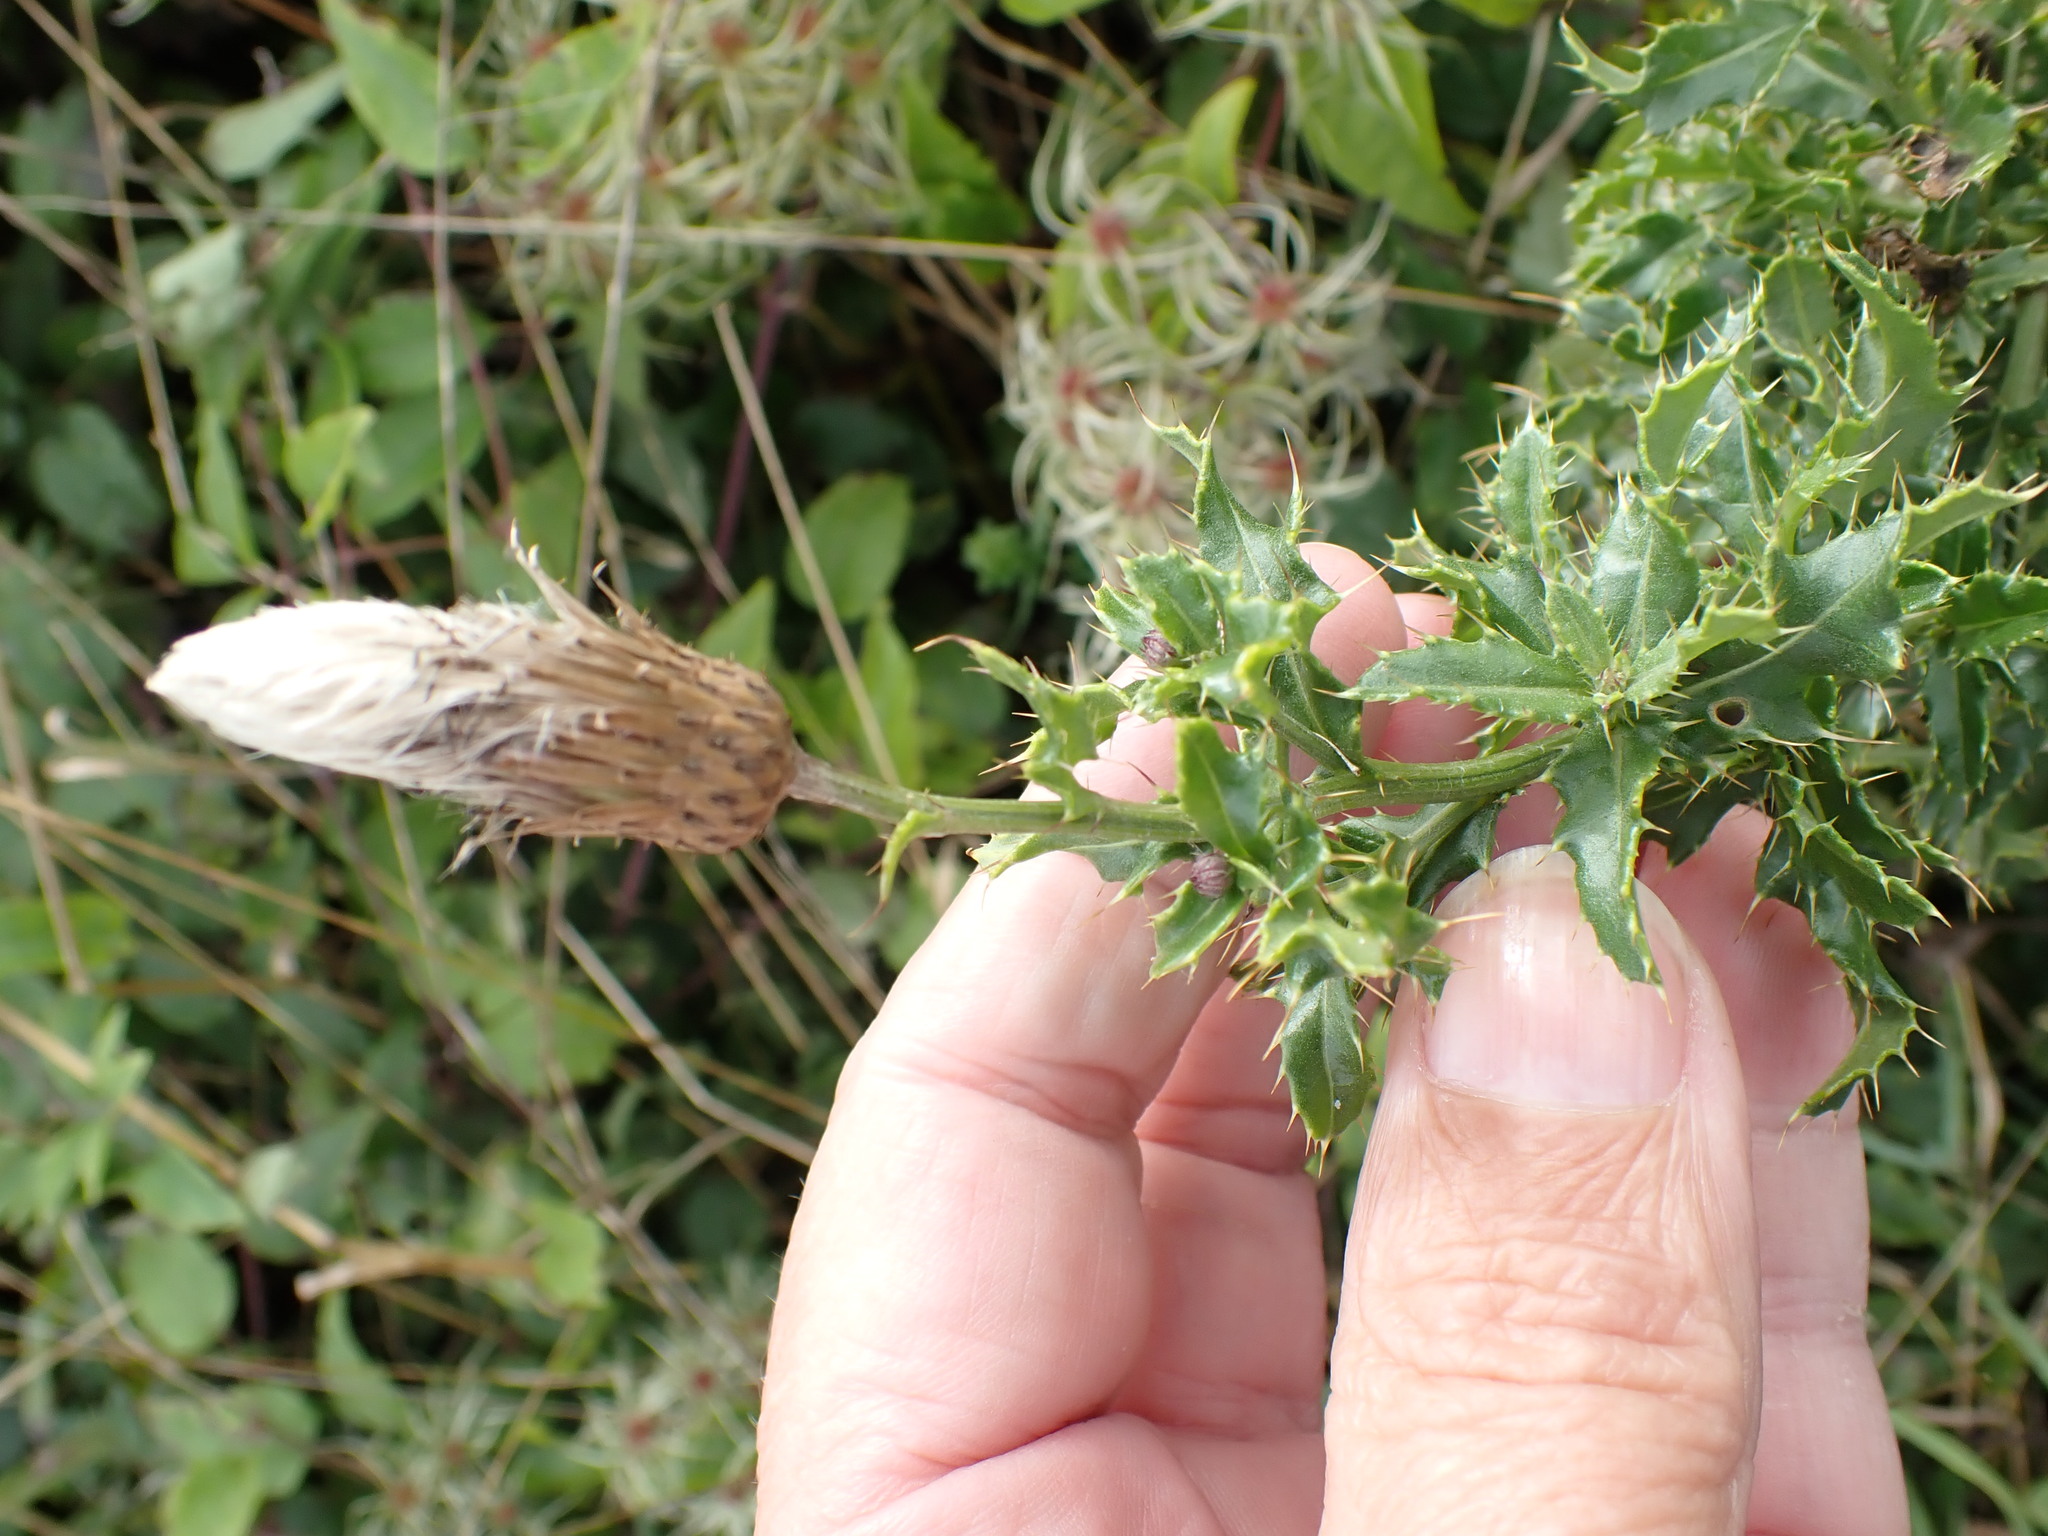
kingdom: Plantae
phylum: Tracheophyta
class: Magnoliopsida
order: Asterales
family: Asteraceae
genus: Cirsium
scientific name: Cirsium arvense
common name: Creeping thistle
